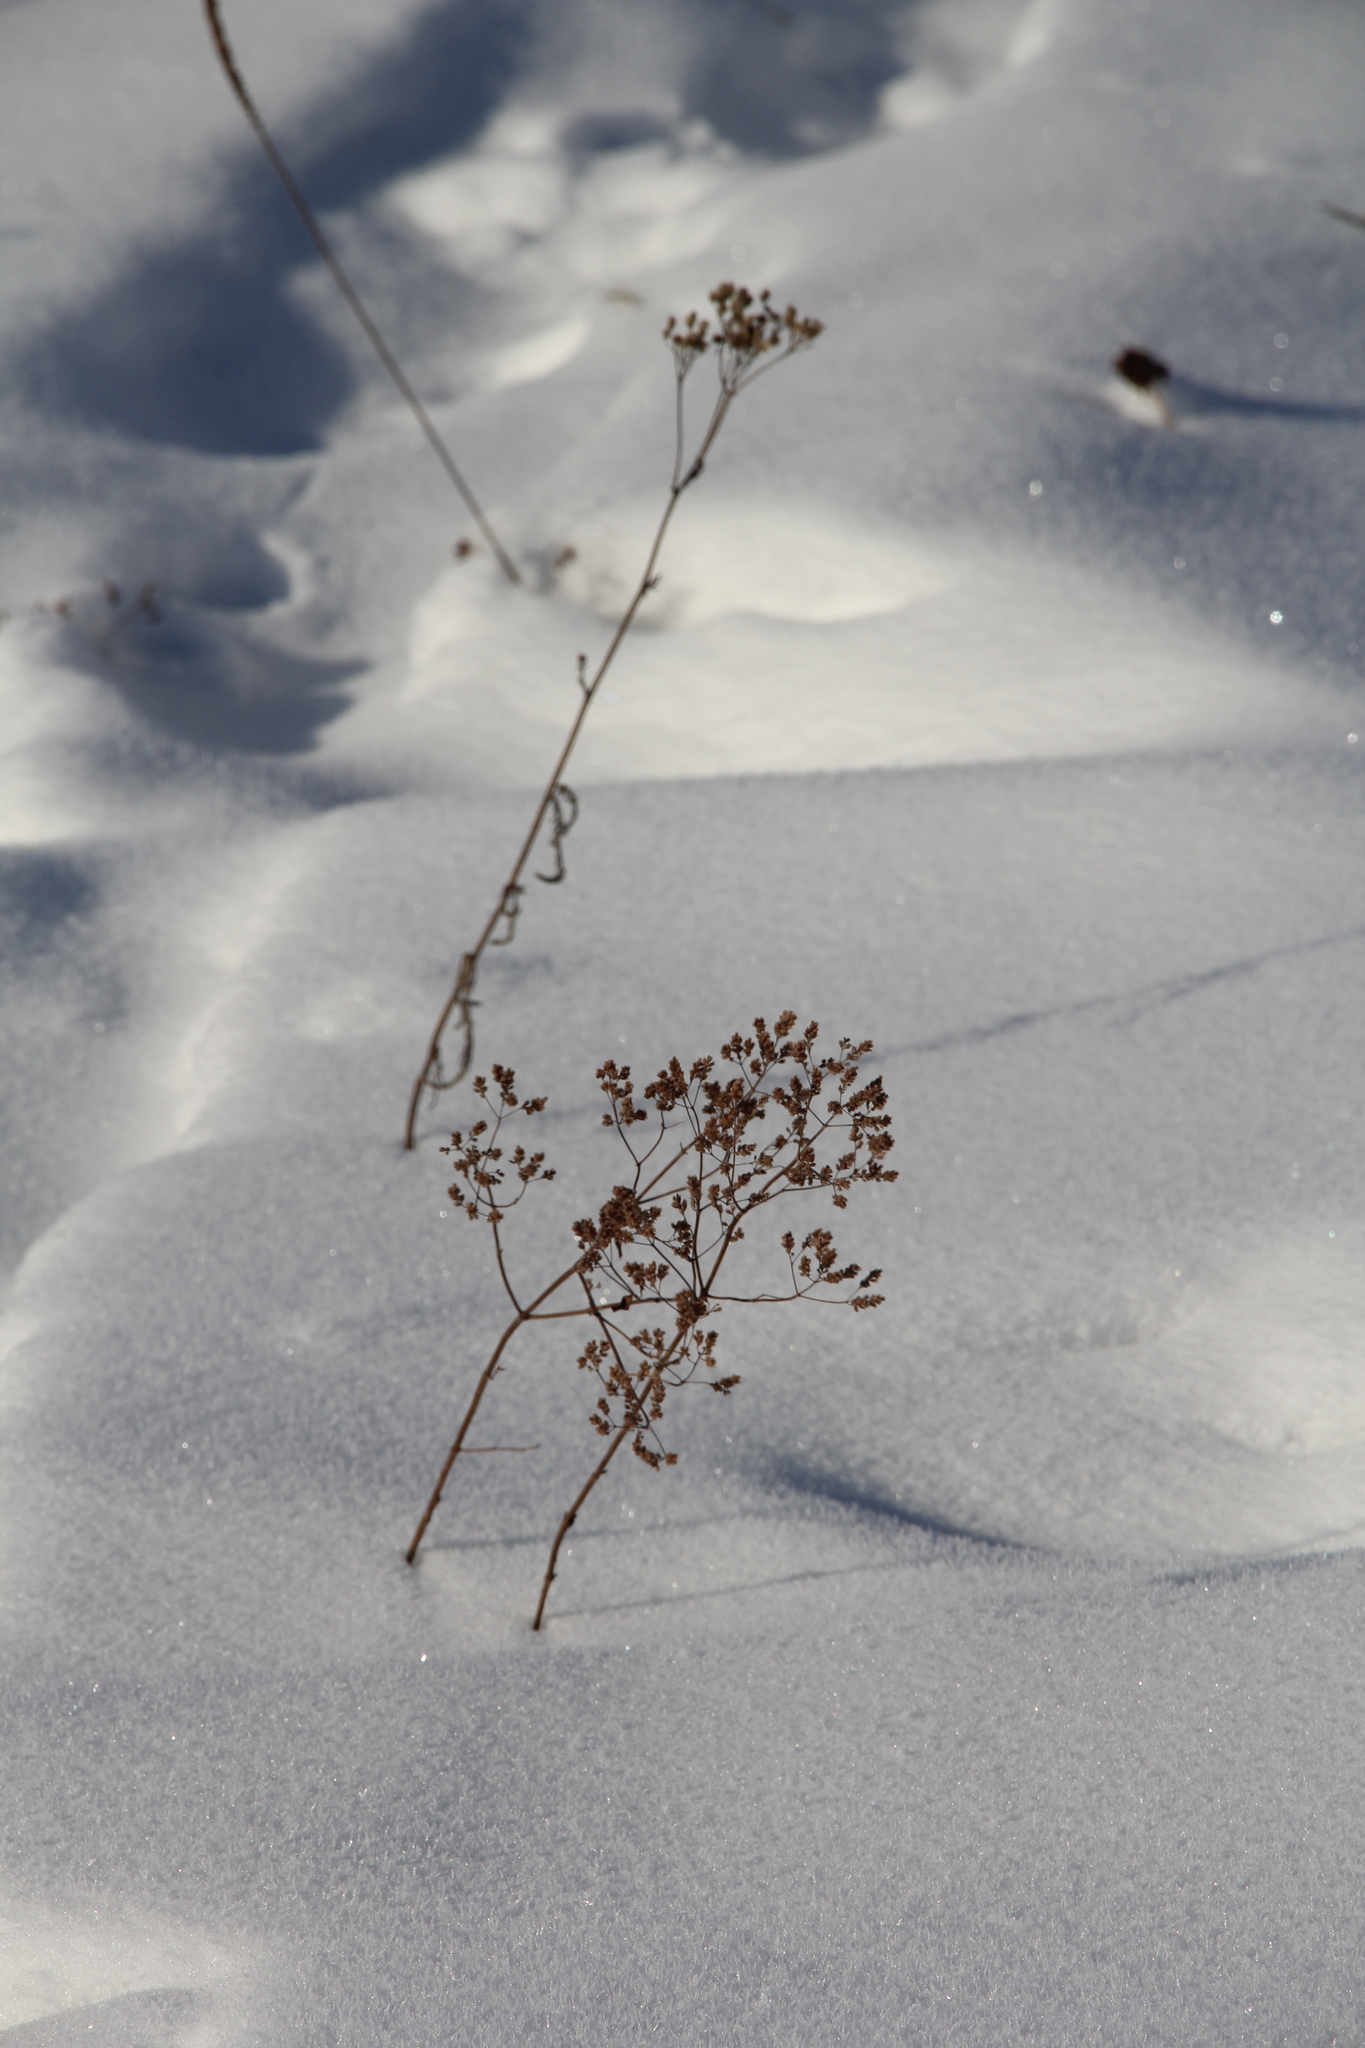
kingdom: Plantae
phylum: Tracheophyta
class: Magnoliopsida
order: Lamiales
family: Lamiaceae
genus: Origanum
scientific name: Origanum vulgare
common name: Wild marjoram
